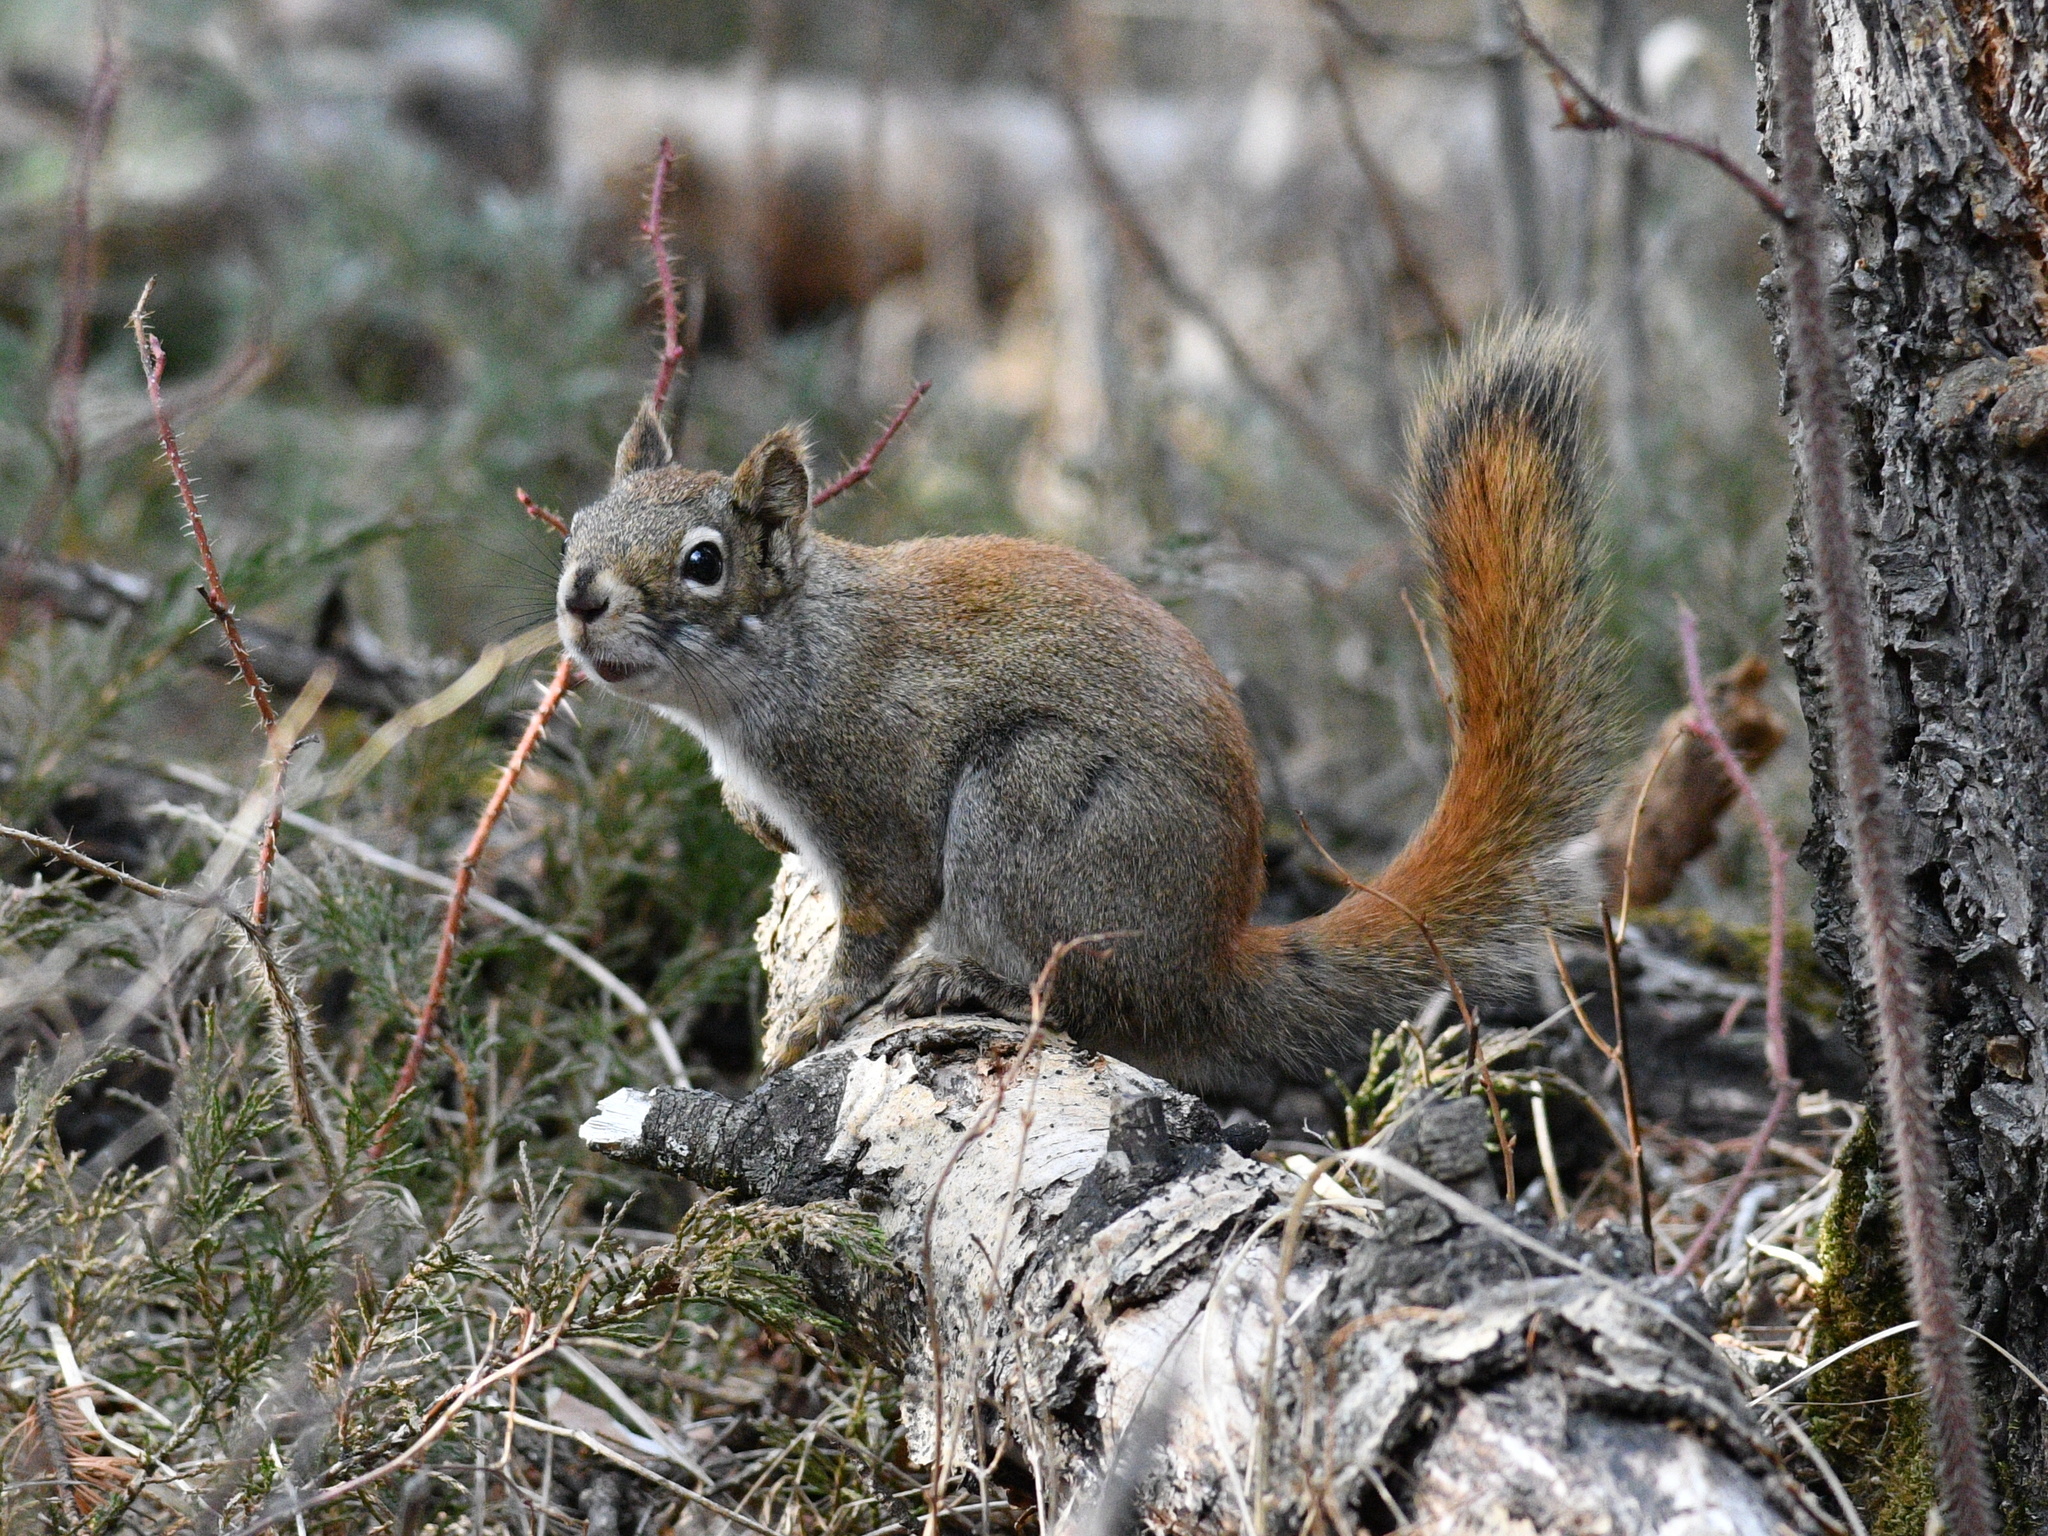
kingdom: Animalia
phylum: Chordata
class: Mammalia
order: Rodentia
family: Sciuridae
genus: Tamiasciurus
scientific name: Tamiasciurus hudsonicus
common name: Red squirrel
